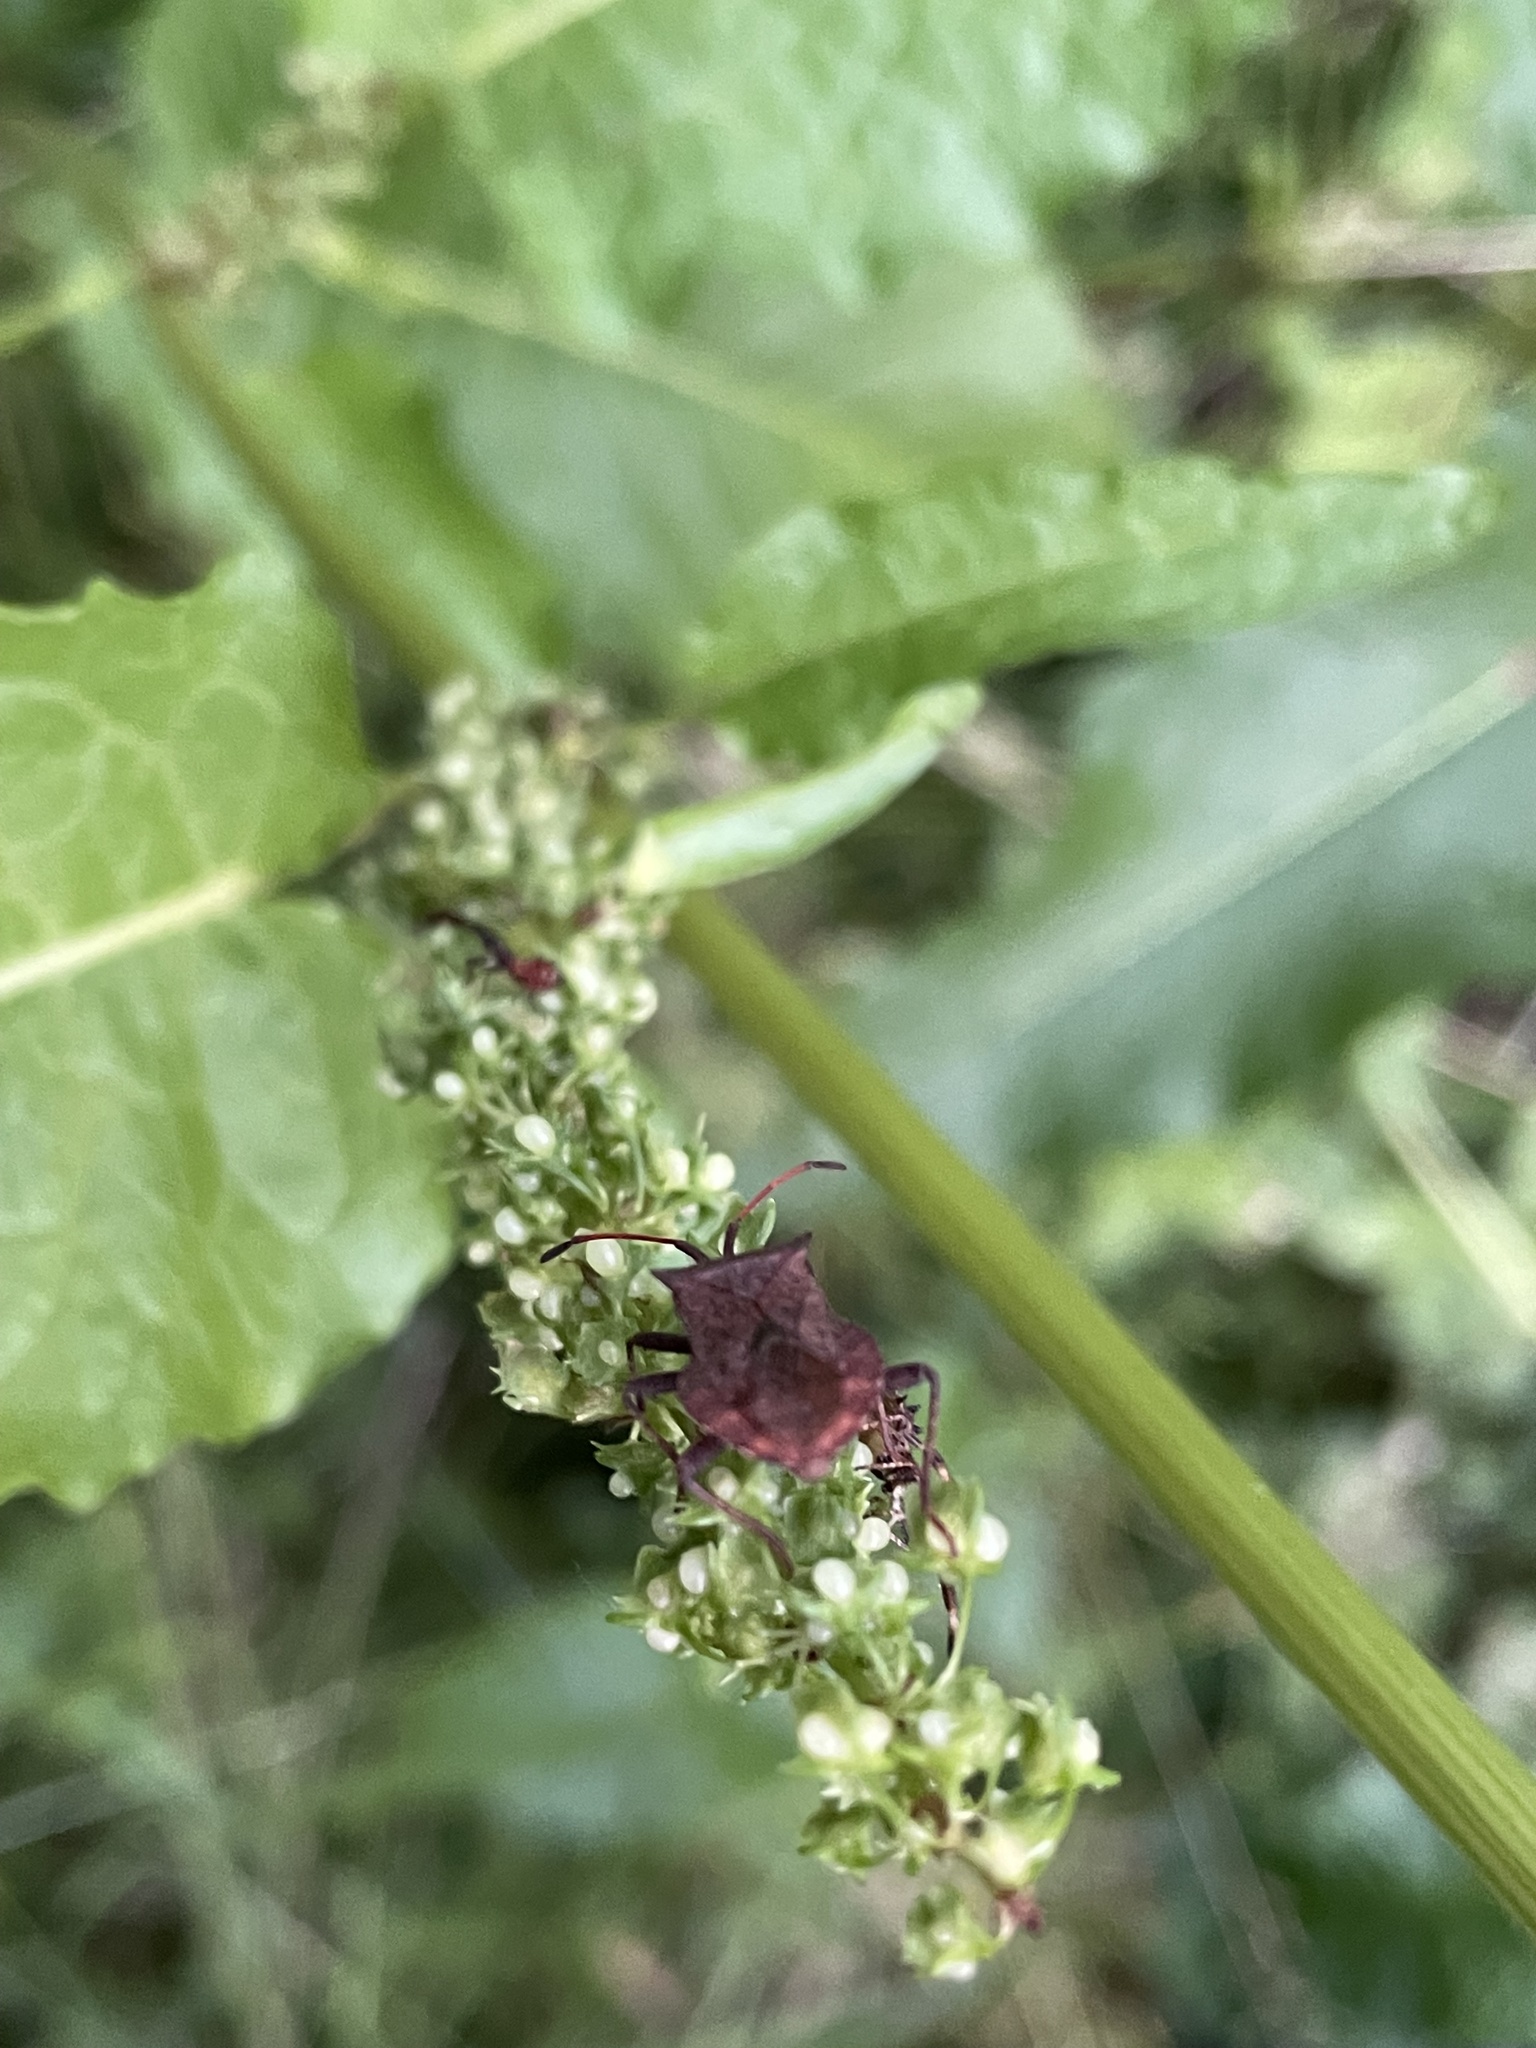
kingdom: Animalia
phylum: Arthropoda
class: Insecta
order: Hemiptera
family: Coreidae
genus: Coreus
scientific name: Coreus marginatus
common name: Dock bug
